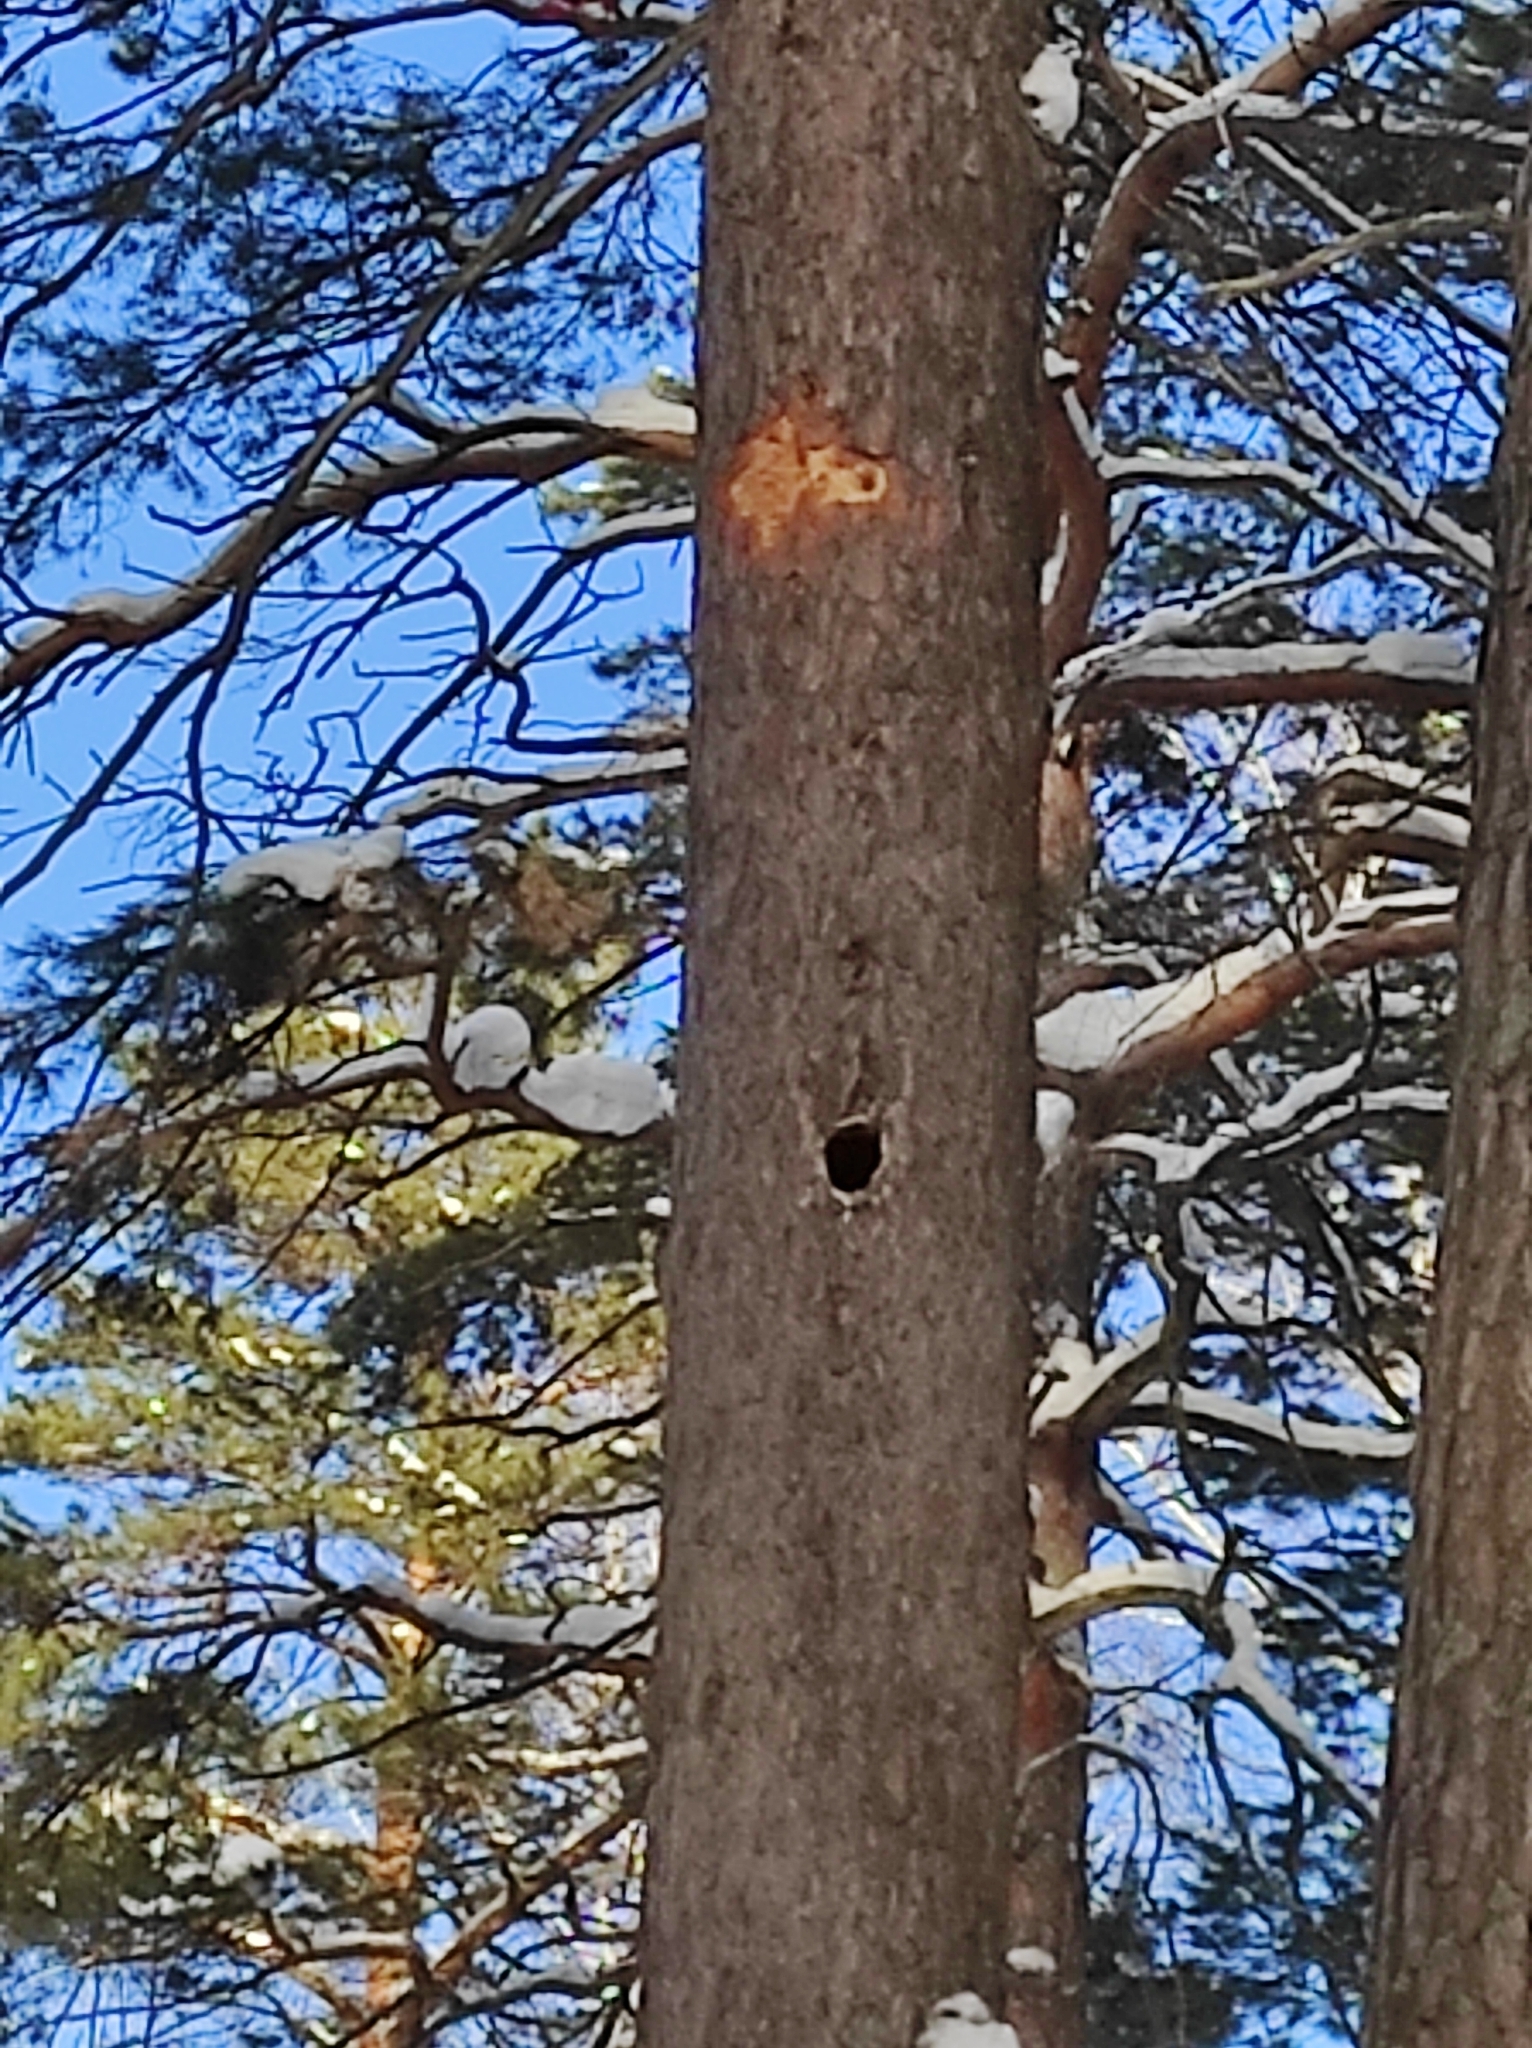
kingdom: Plantae
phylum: Tracheophyta
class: Pinopsida
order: Pinales
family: Pinaceae
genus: Pinus
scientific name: Pinus sylvestris
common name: Scots pine
